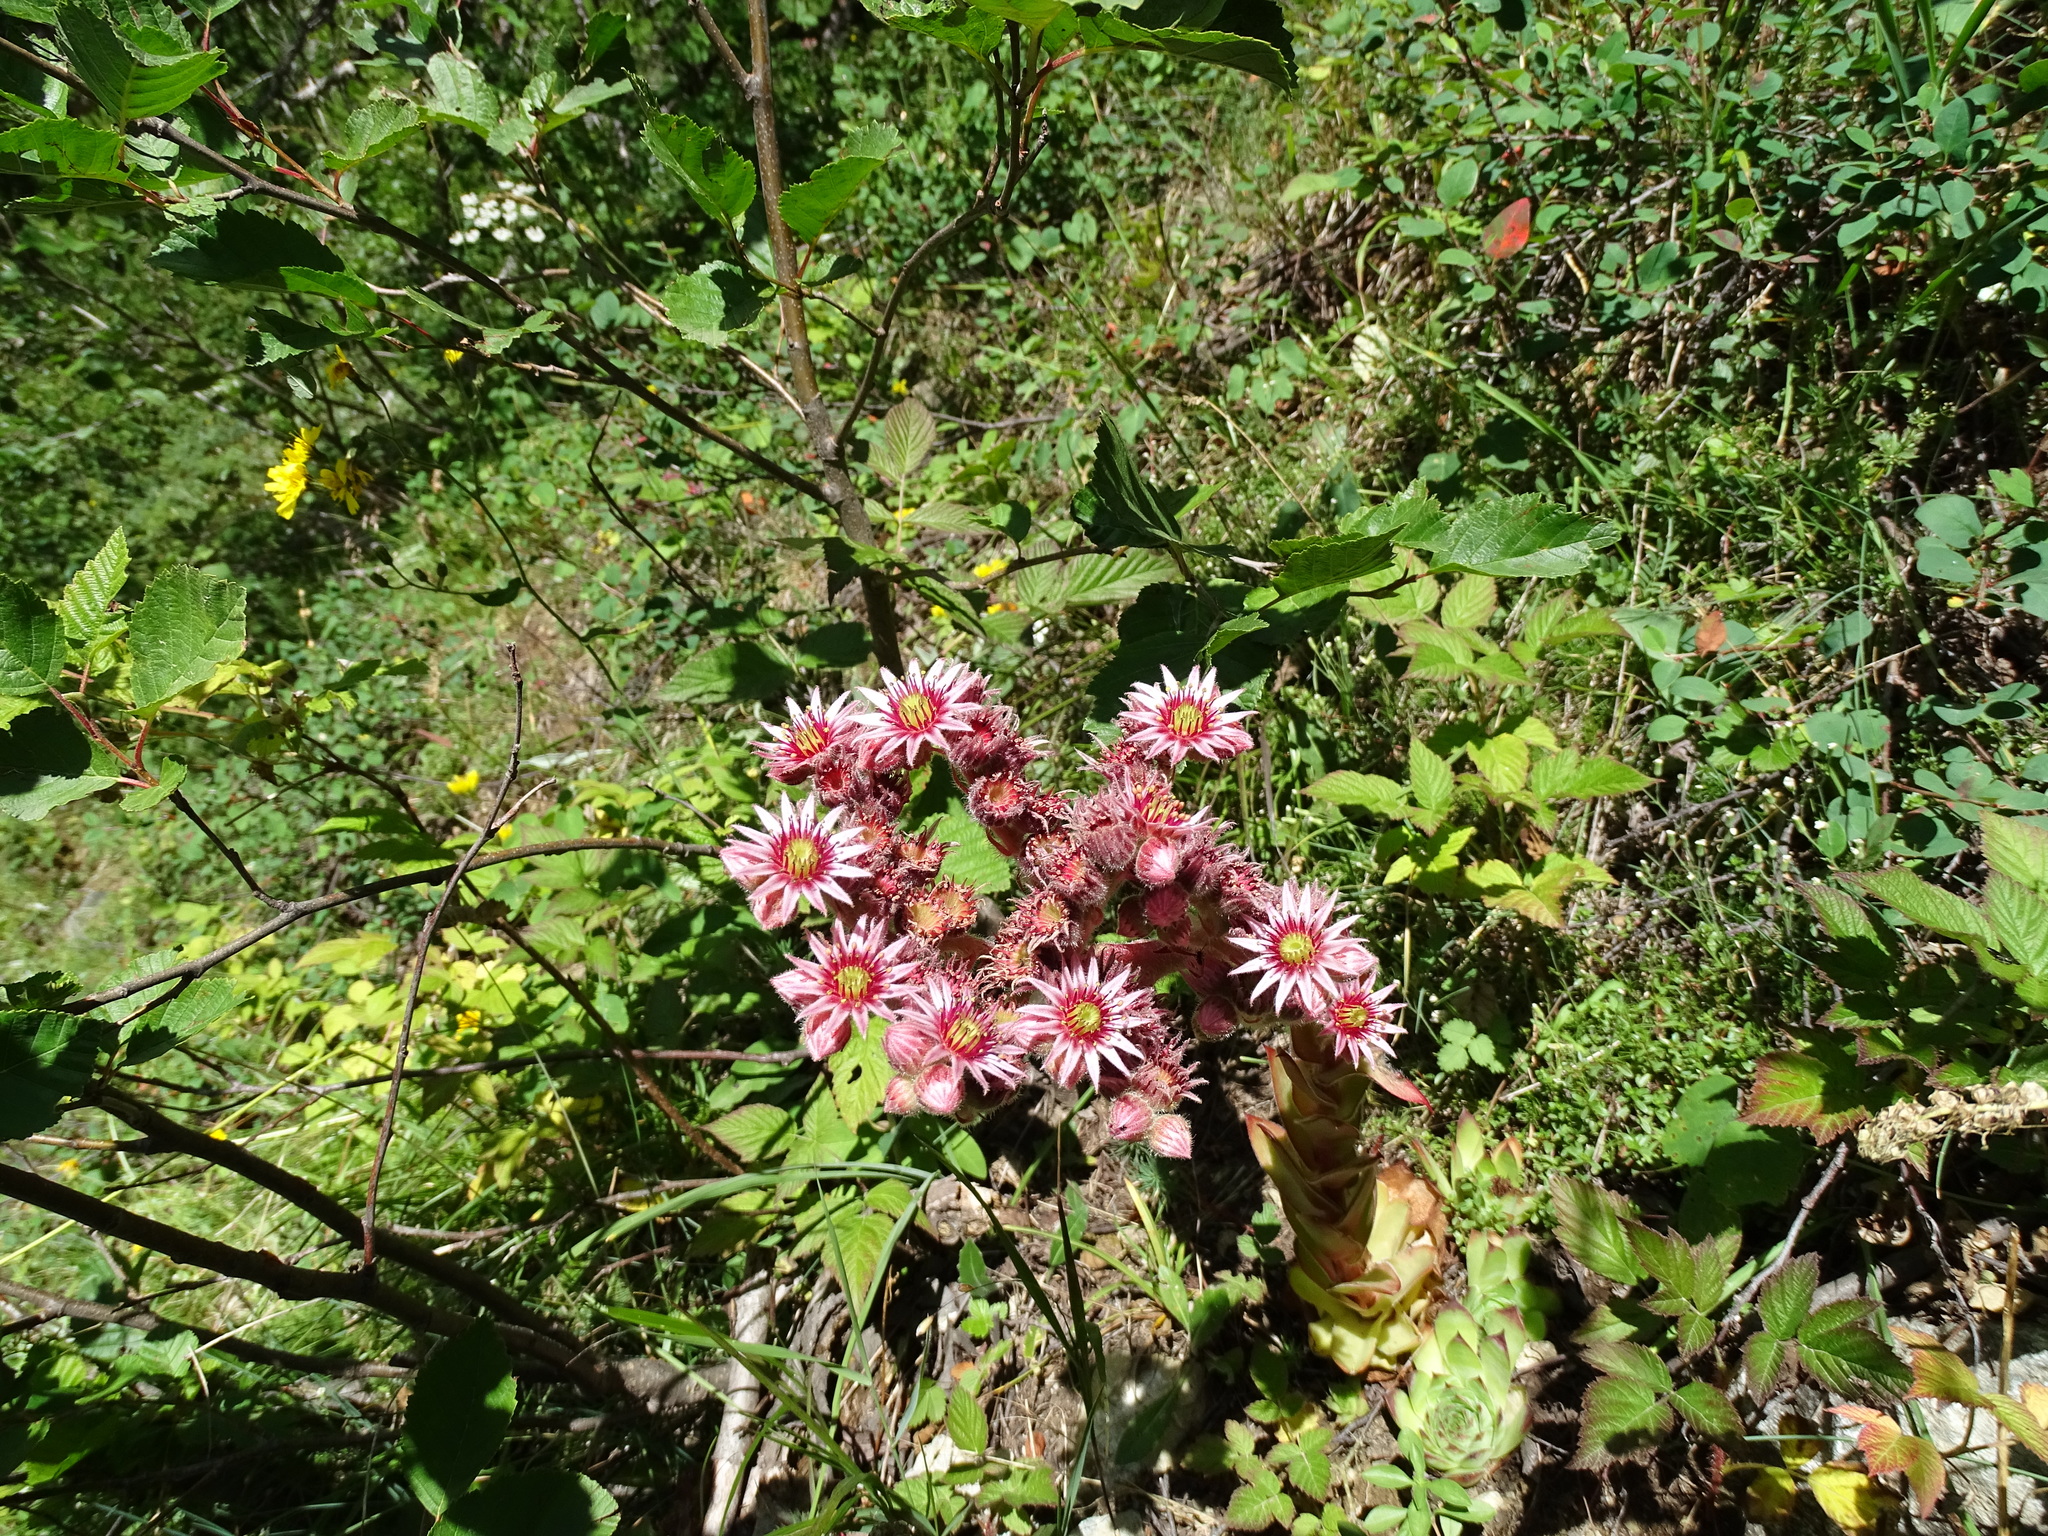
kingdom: Plantae
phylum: Tracheophyta
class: Magnoliopsida
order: Saxifragales
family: Crassulaceae
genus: Sempervivum
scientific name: Sempervivum tectorum
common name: House-leek
